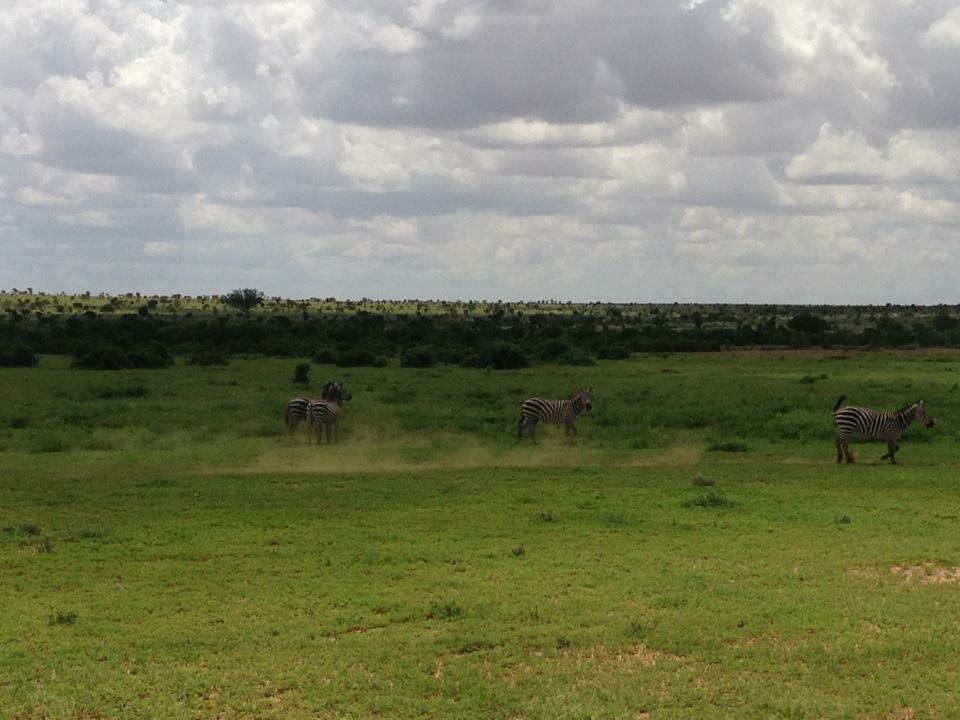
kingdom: Animalia
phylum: Chordata
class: Mammalia
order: Perissodactyla
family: Equidae
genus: Equus
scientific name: Equus quagga
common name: Plains zebra
